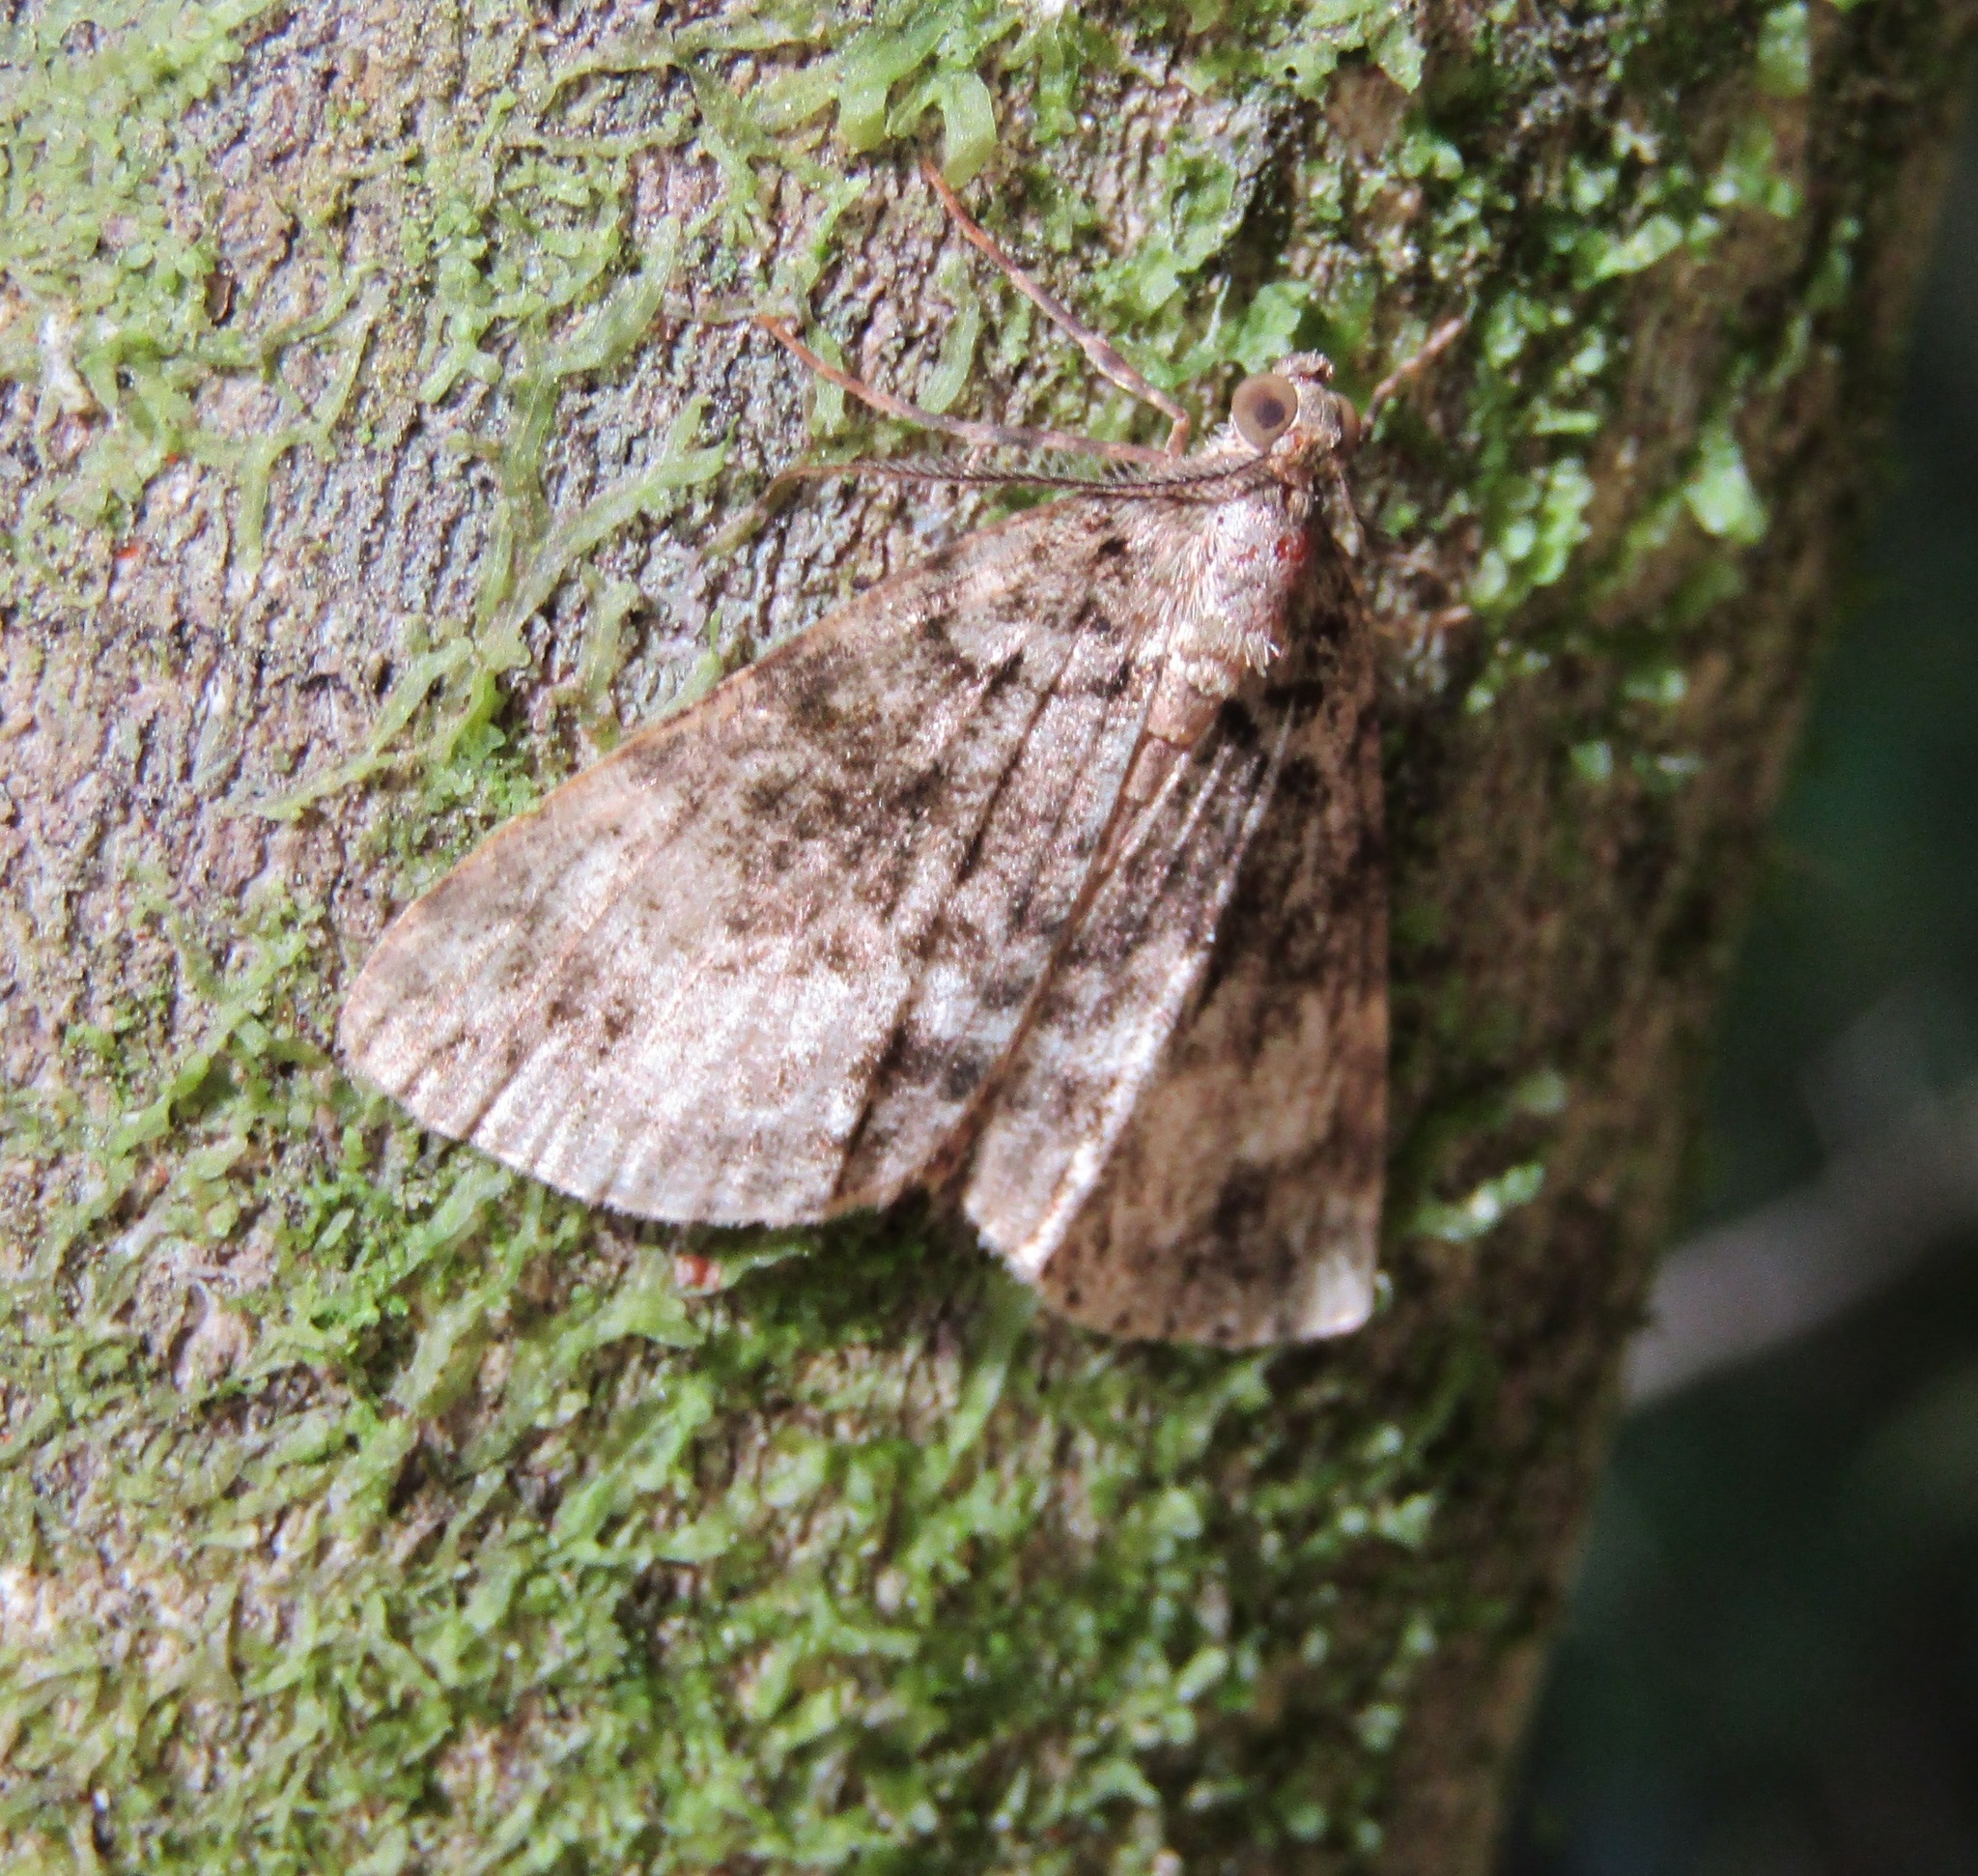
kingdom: Animalia
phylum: Arthropoda
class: Insecta
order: Lepidoptera
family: Geometridae
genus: Pseudocoremia
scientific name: Pseudocoremia indistincta
